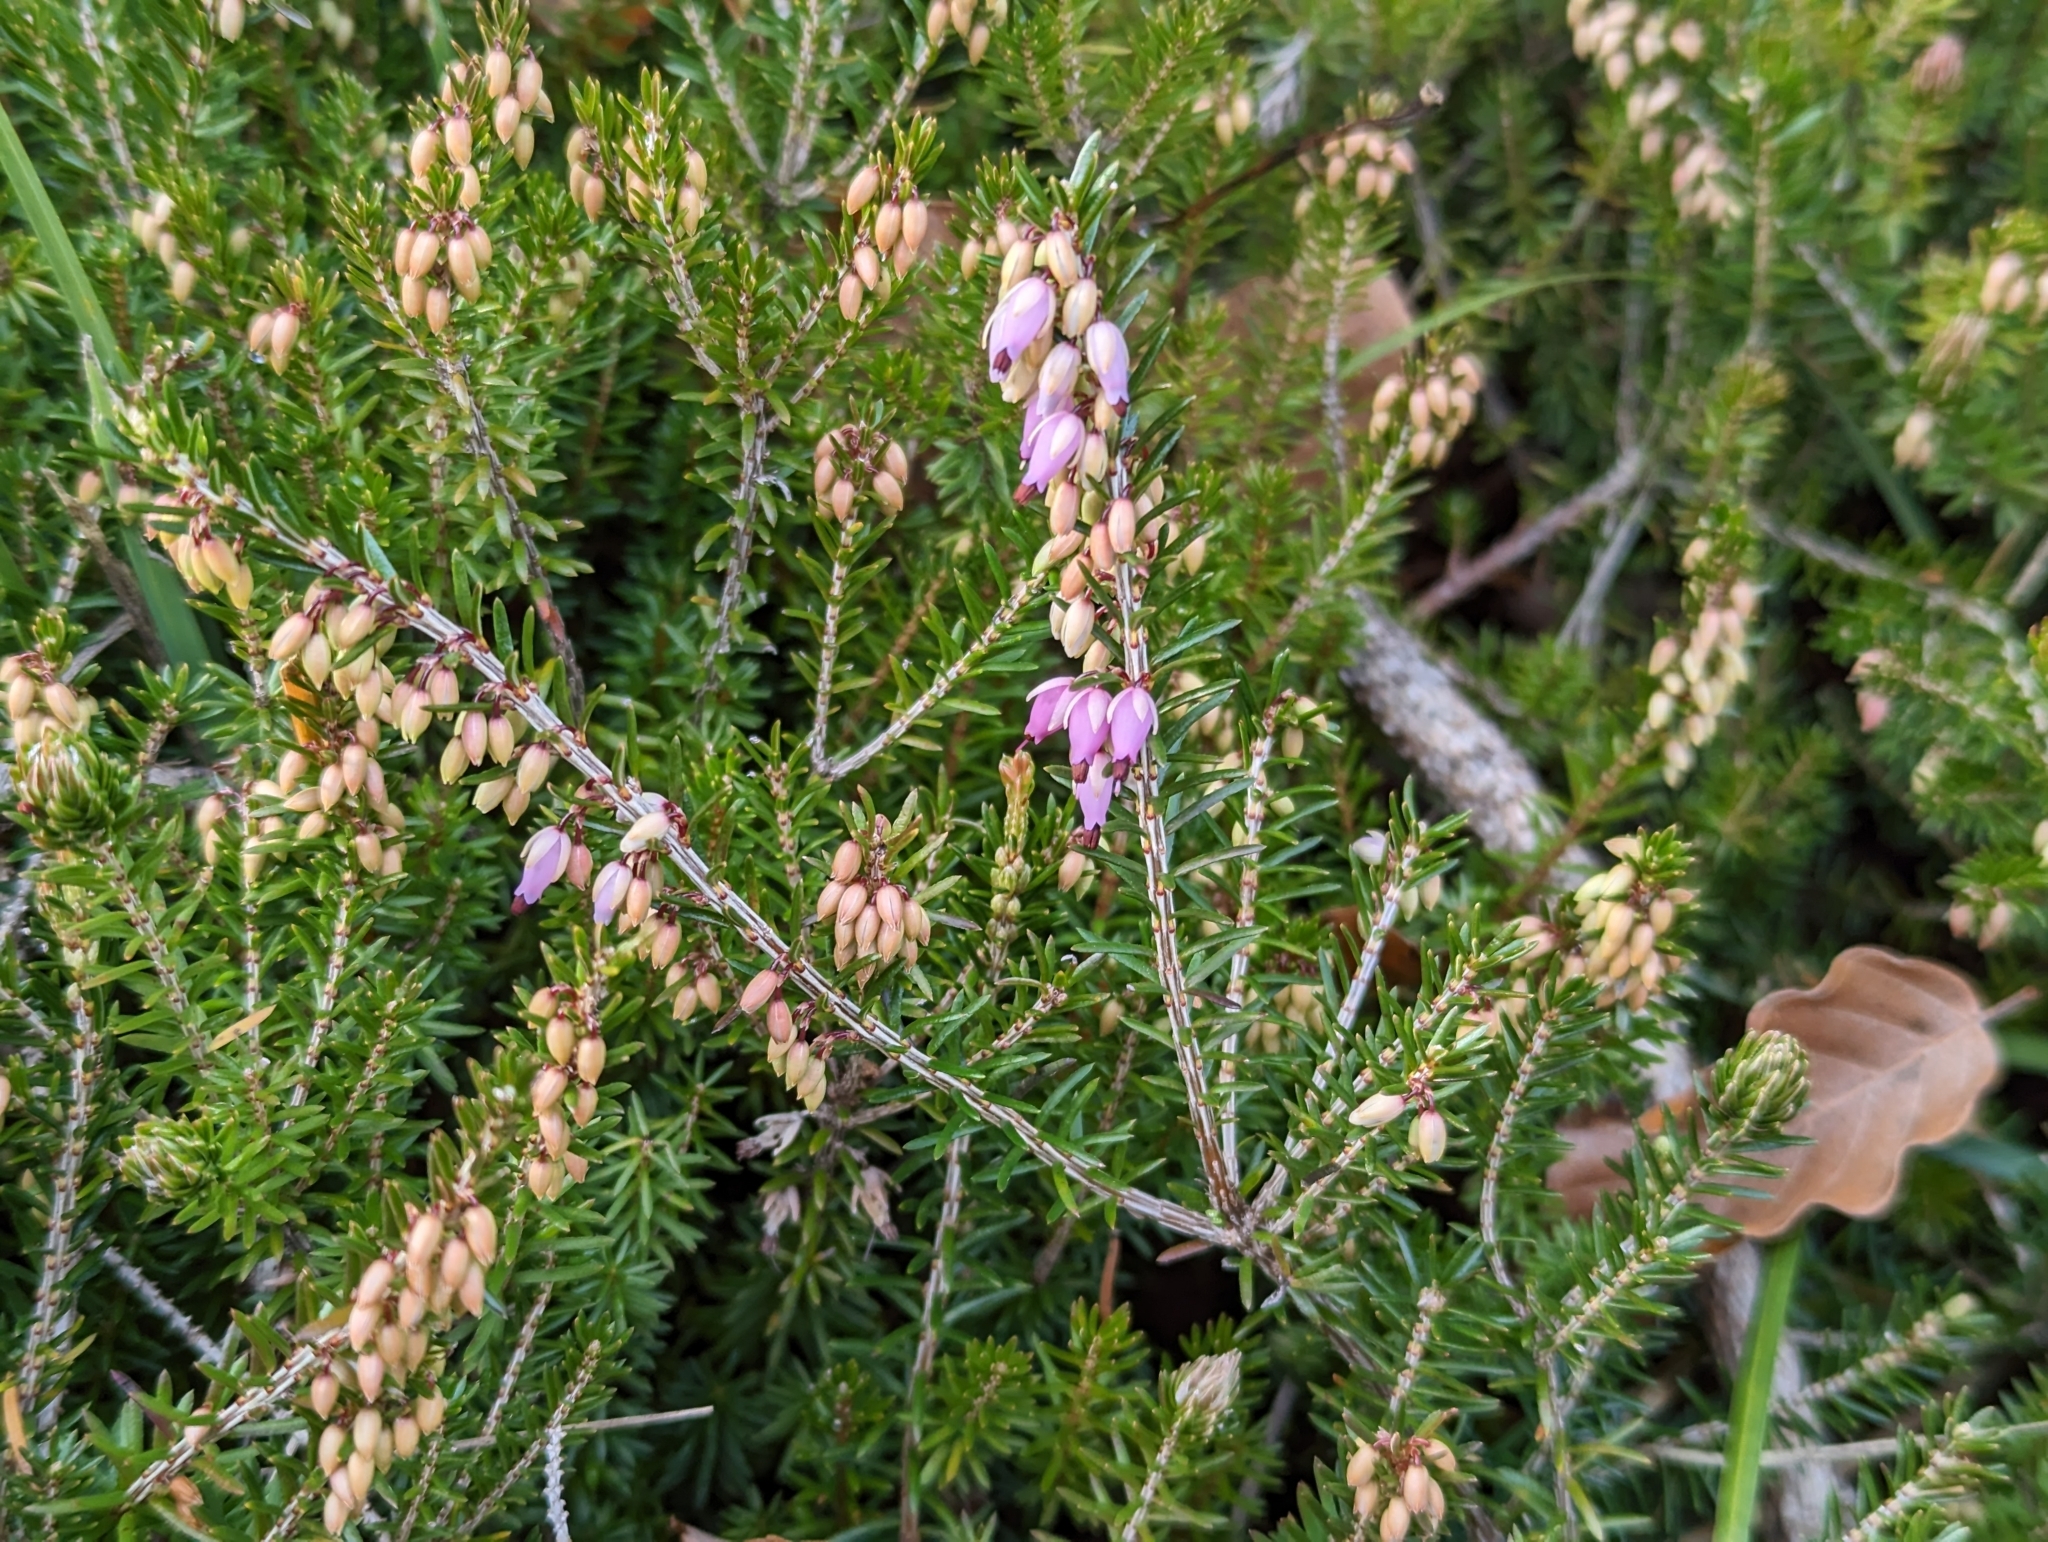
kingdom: Plantae
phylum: Tracheophyta
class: Magnoliopsida
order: Ericales
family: Ericaceae
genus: Erica
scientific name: Erica carnea
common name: Winter heath
